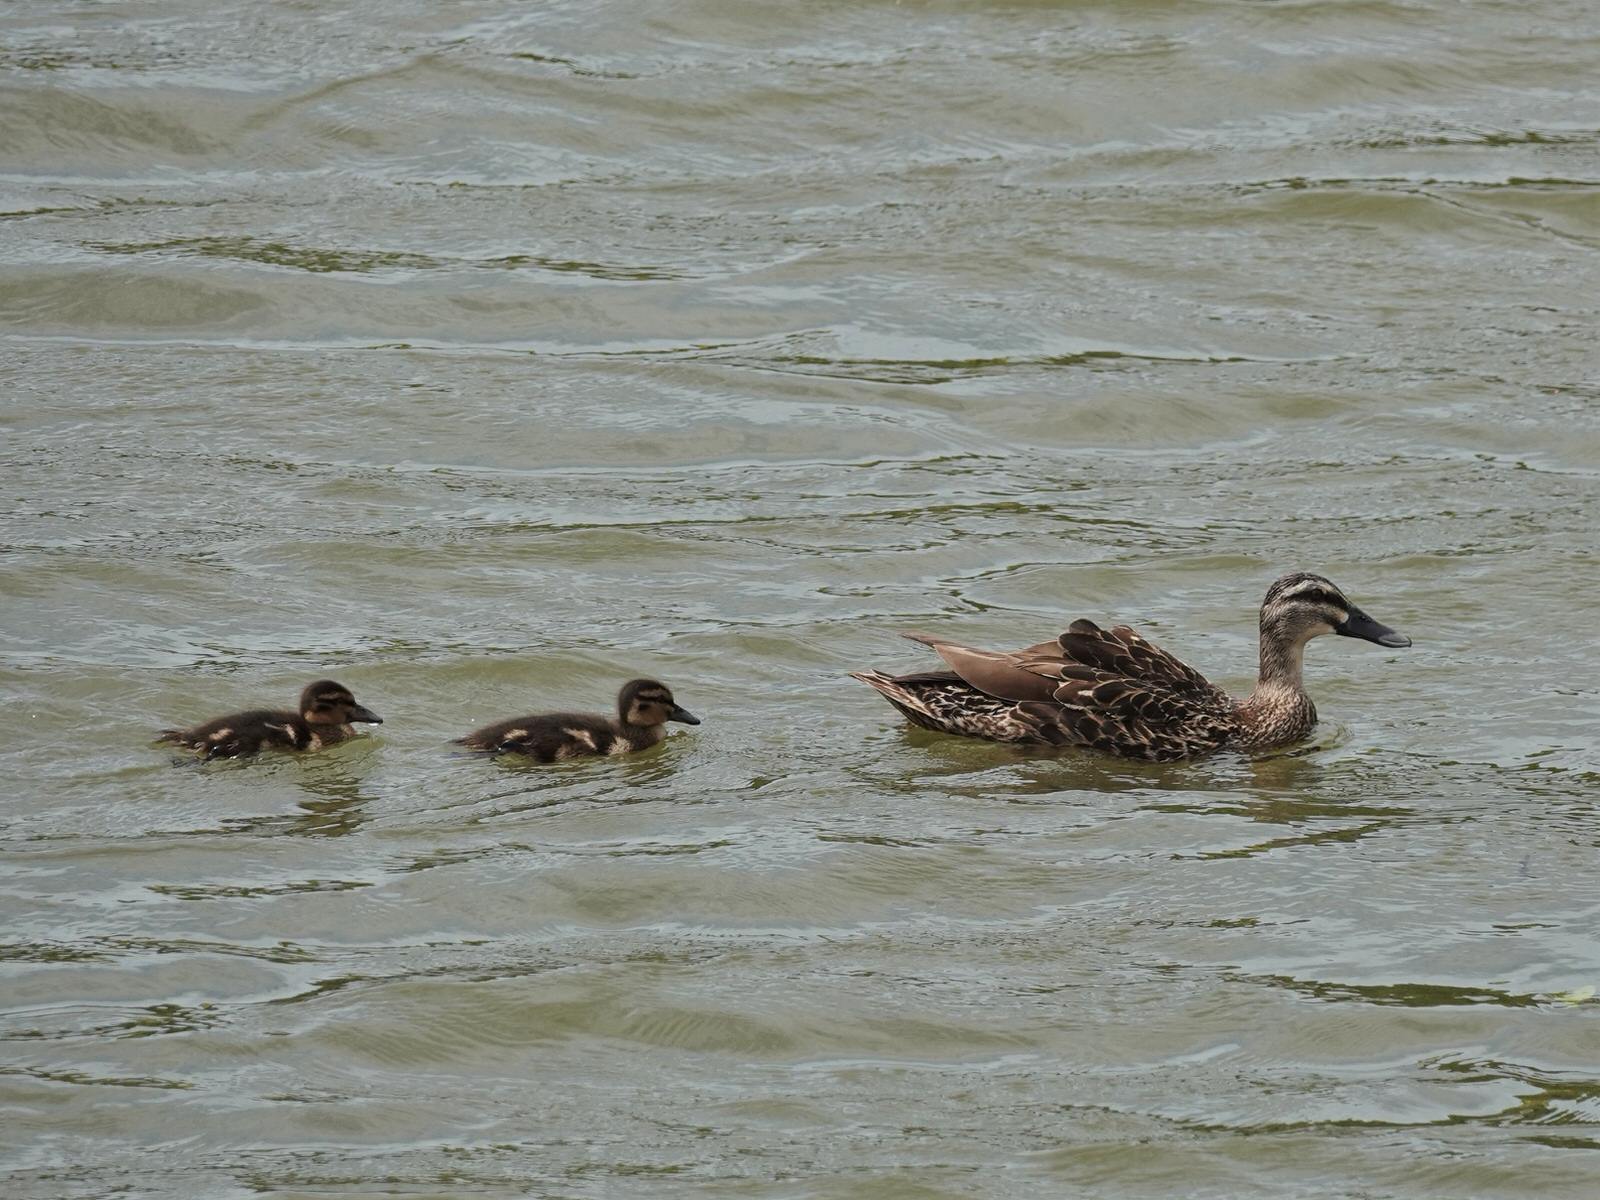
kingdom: Animalia
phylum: Chordata
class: Aves
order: Anseriformes
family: Anatidae
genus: Anas
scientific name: Anas
